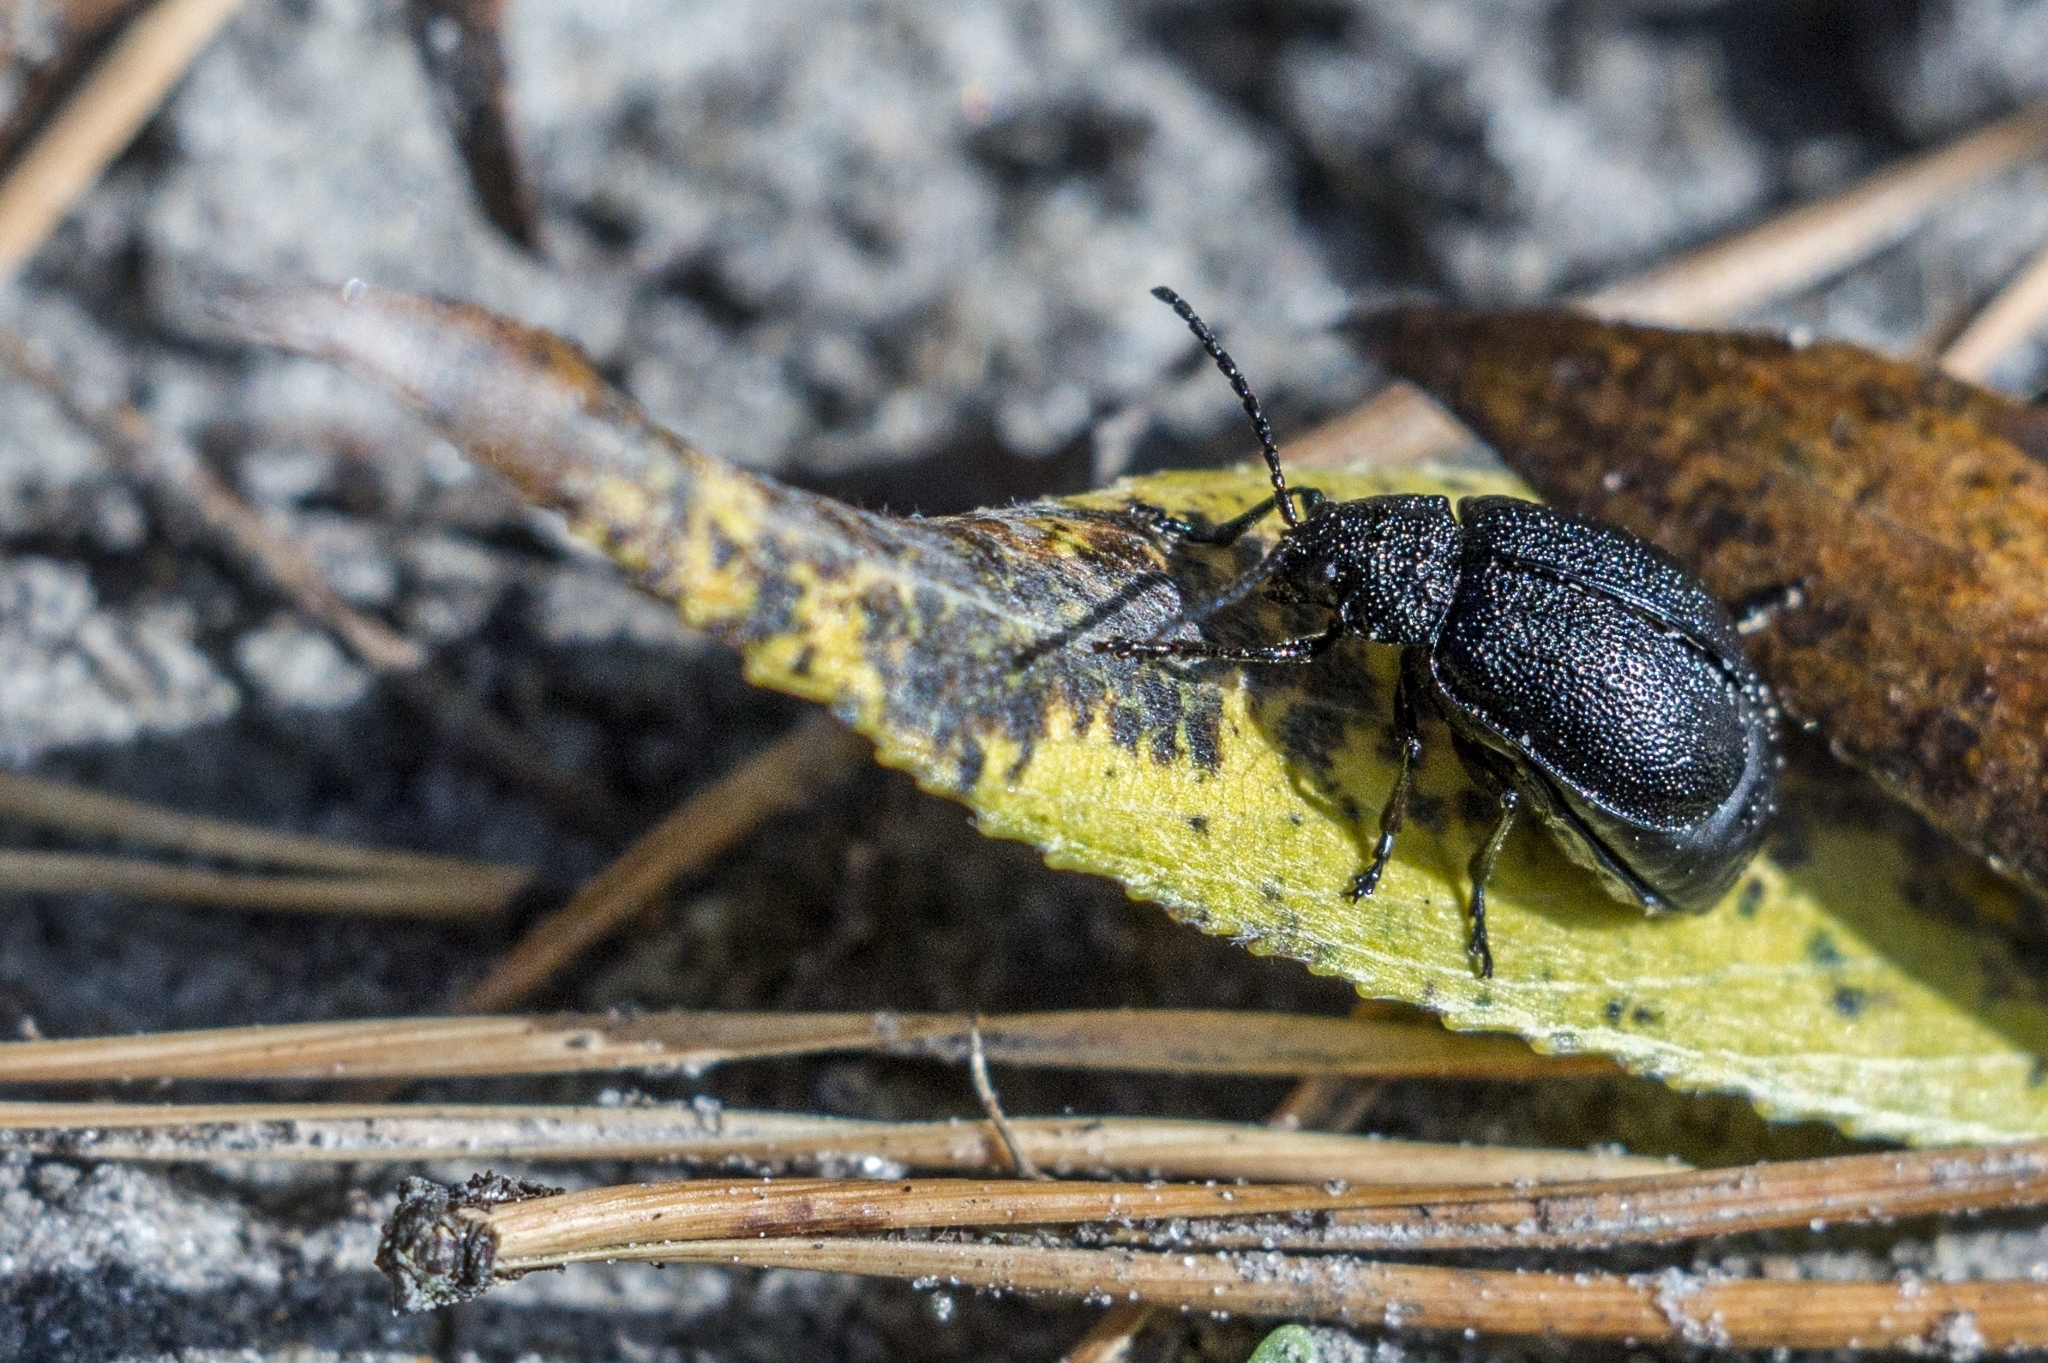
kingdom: Animalia
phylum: Arthropoda
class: Insecta
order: Coleoptera
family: Chrysomelidae
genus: Galeruca
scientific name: Galeruca tanaceti
